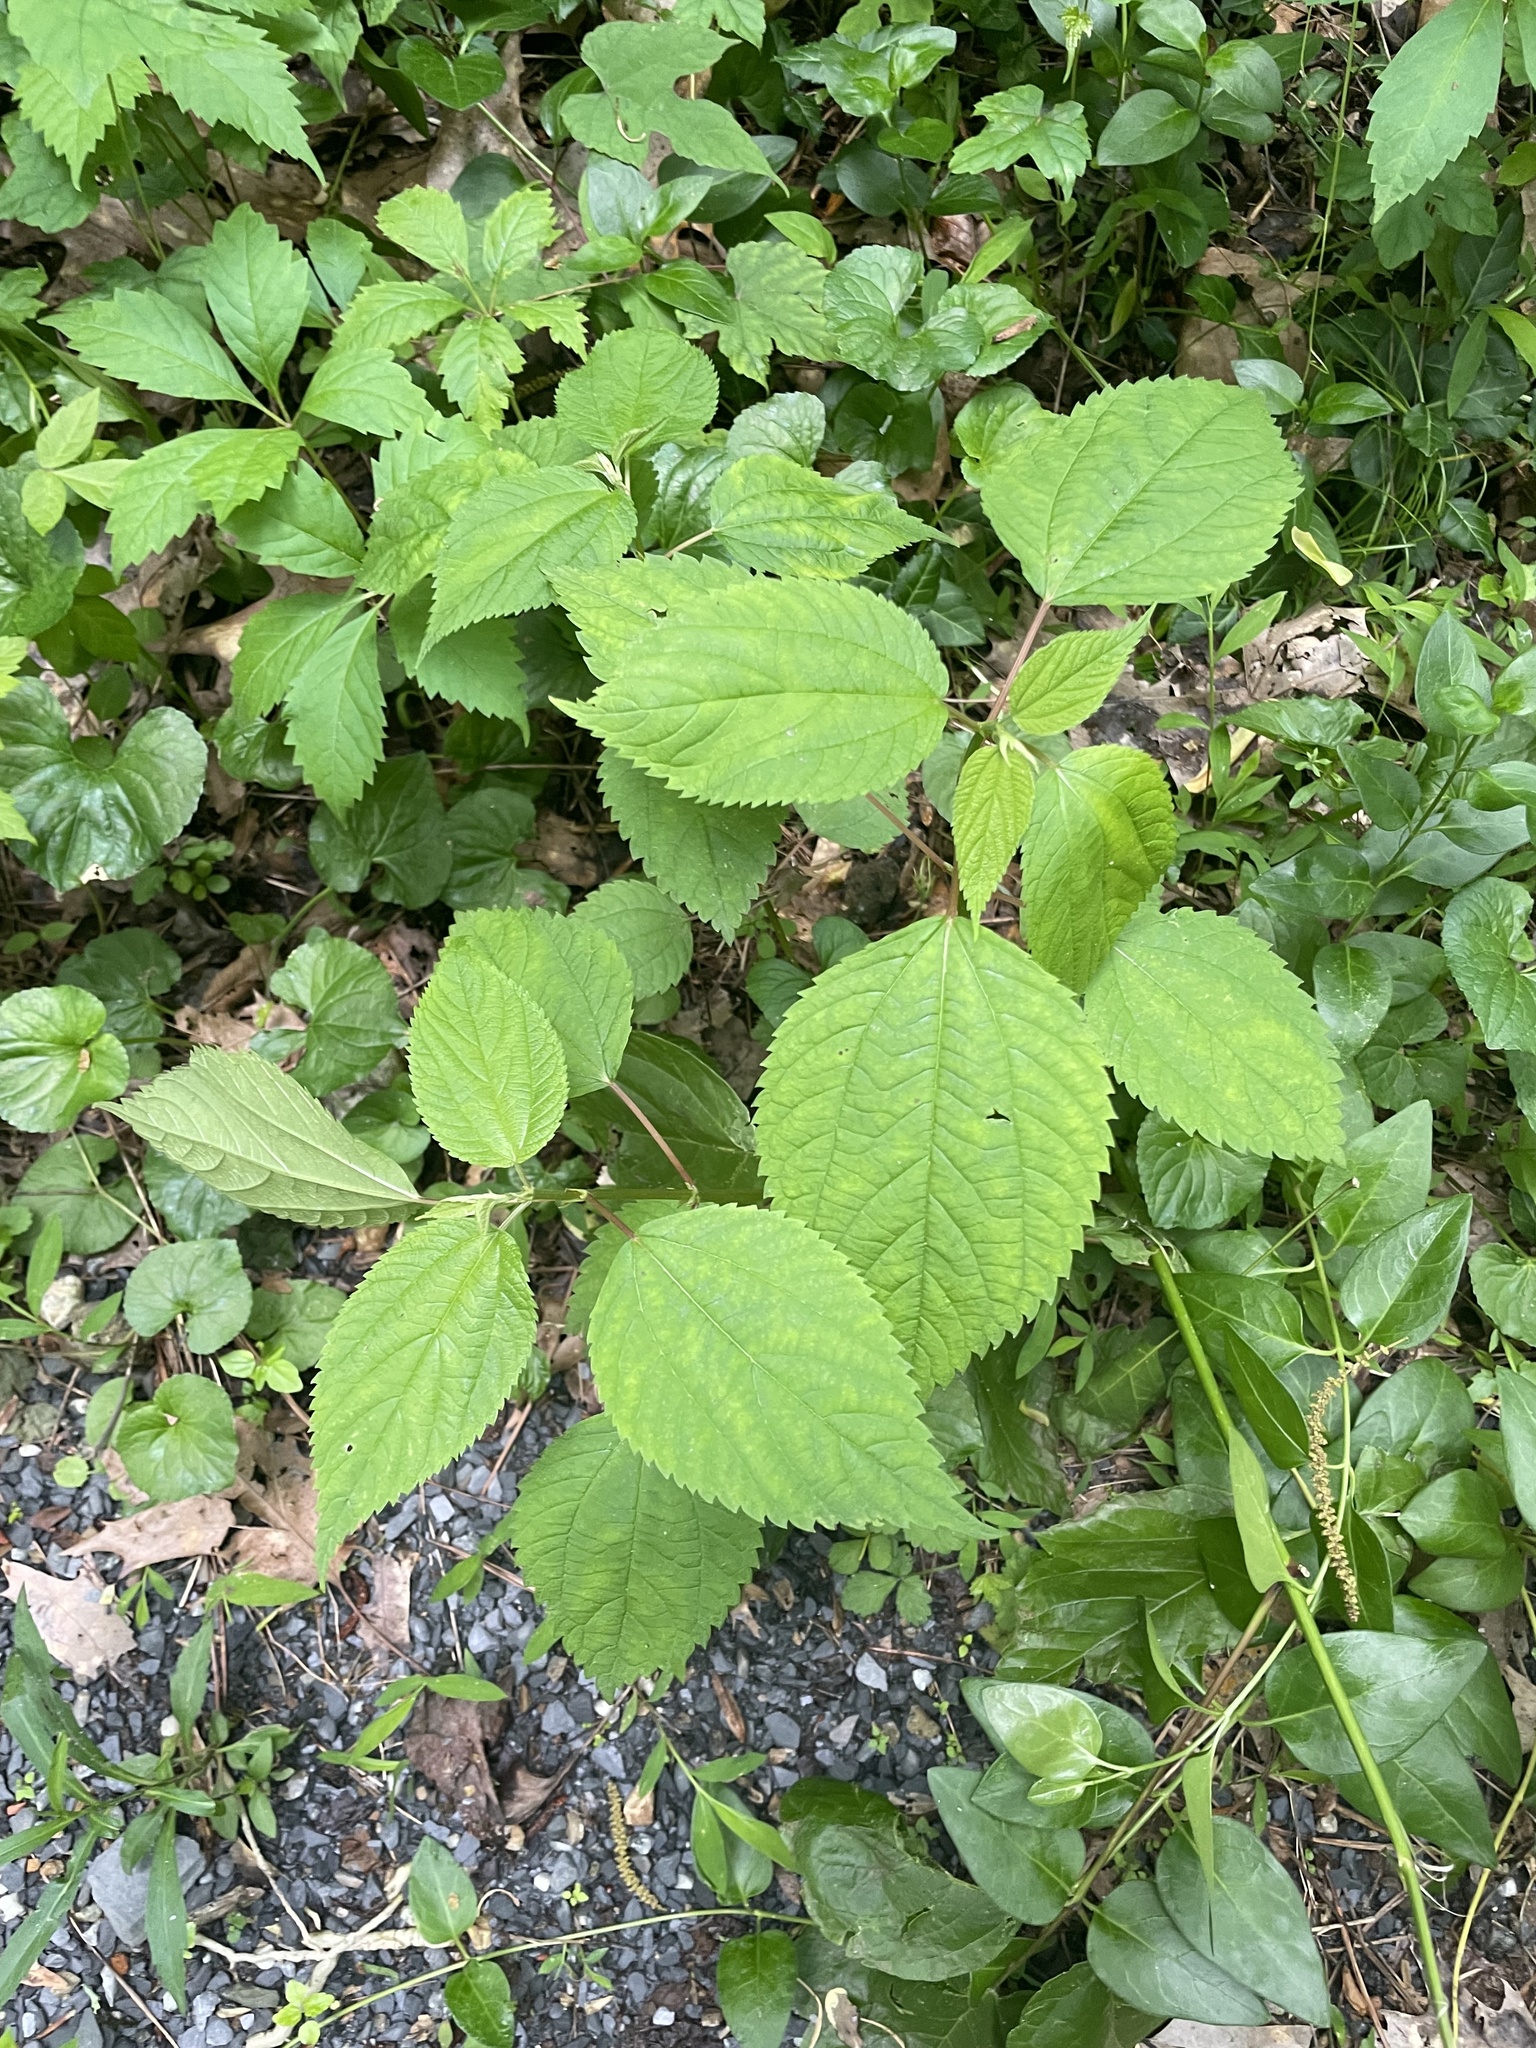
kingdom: Plantae
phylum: Tracheophyta
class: Magnoliopsida
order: Rosales
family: Urticaceae
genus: Boehmeria
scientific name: Boehmeria cylindrica
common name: Bog-hemp
